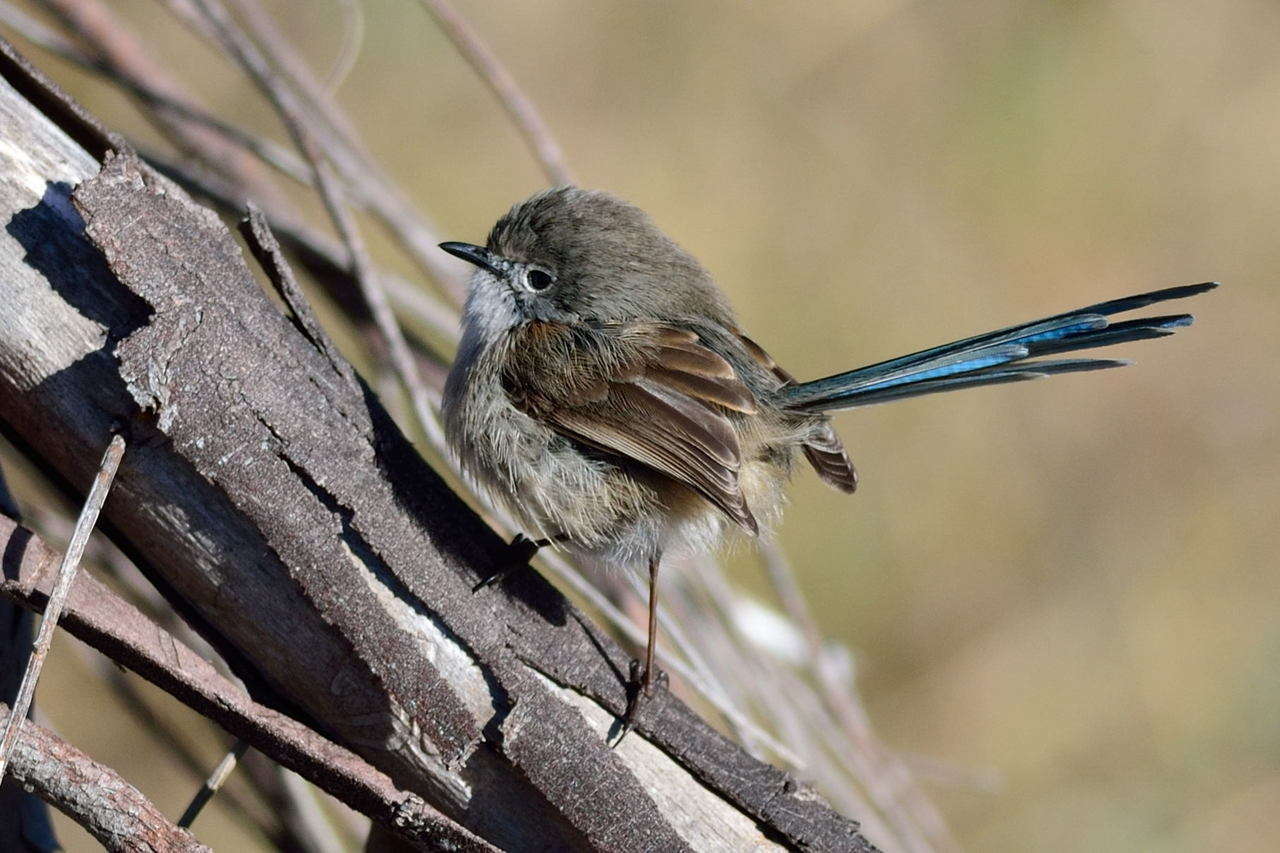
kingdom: Animalia
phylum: Chordata
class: Aves
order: Passeriformes
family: Maluridae
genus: Malurus
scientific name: Malurus splendens
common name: Splendid fairywren
